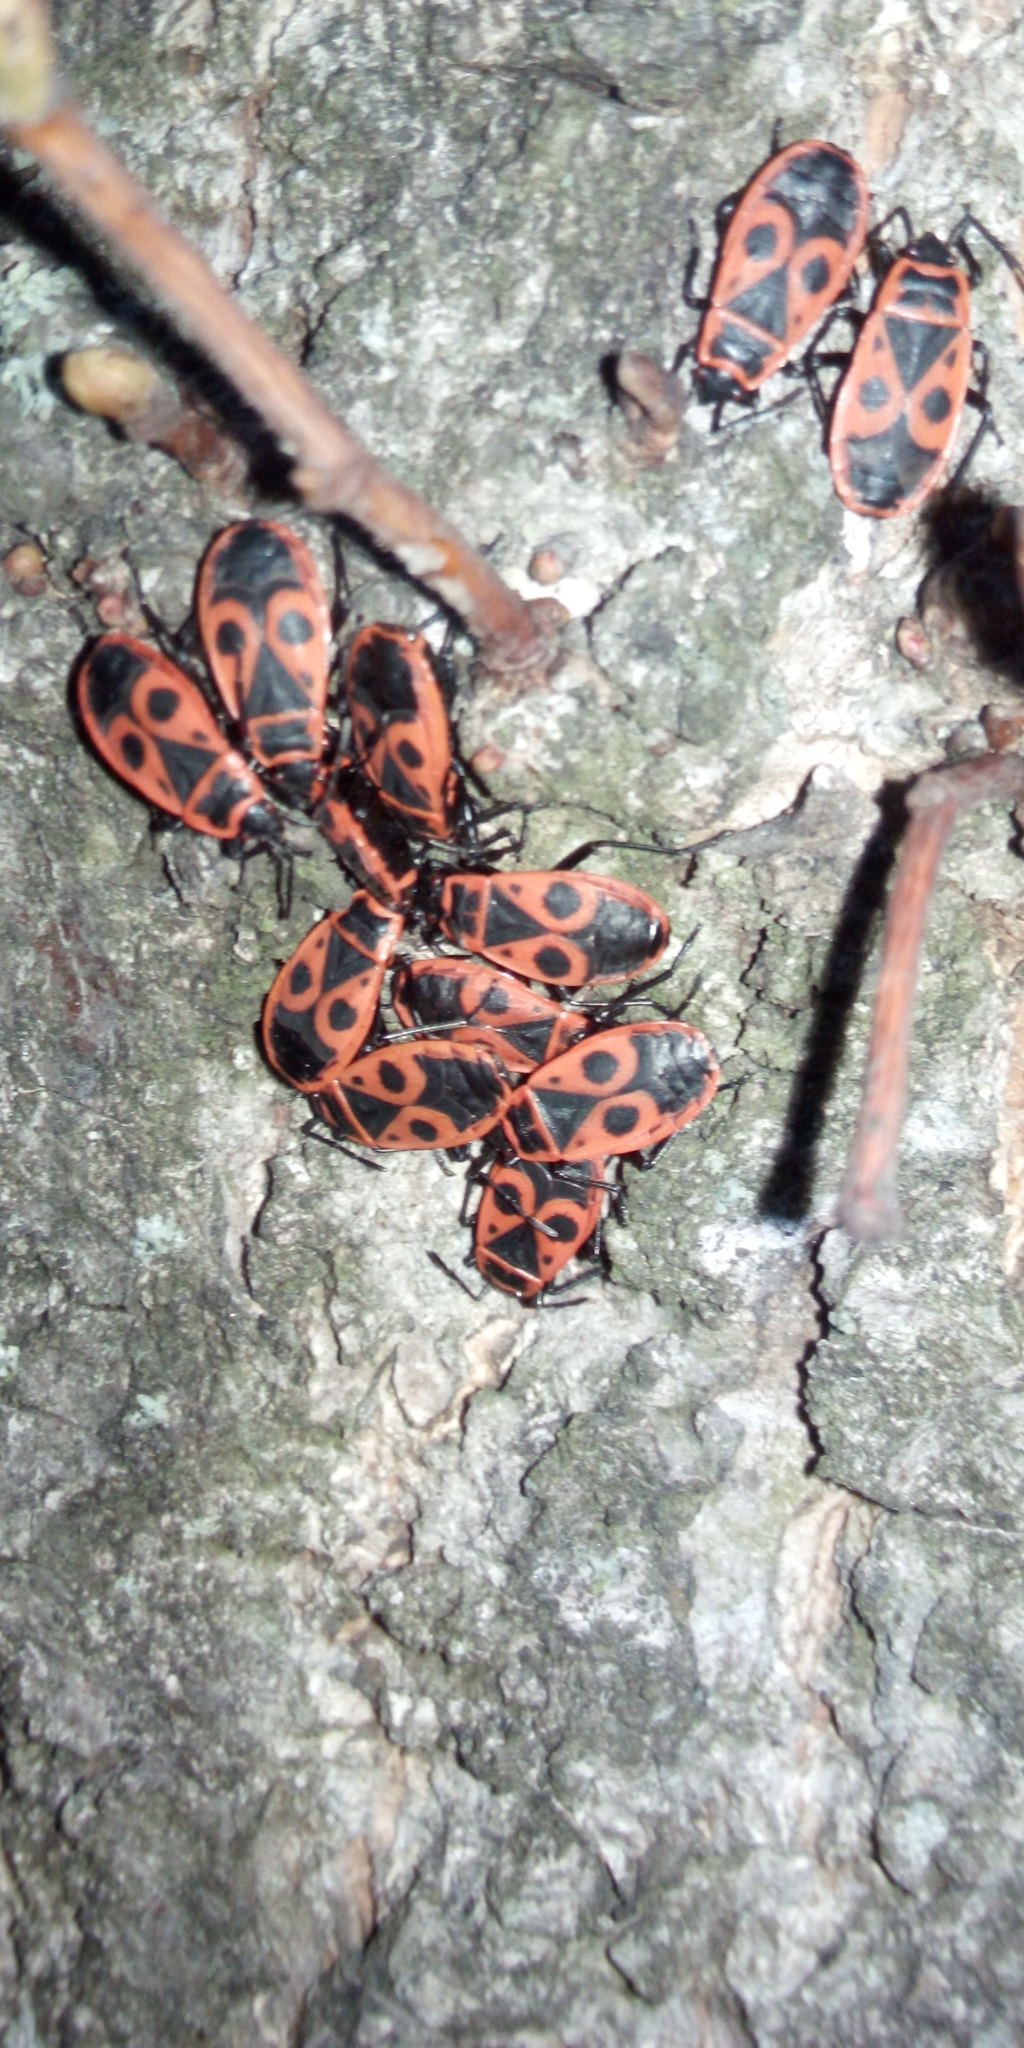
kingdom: Animalia
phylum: Arthropoda
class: Insecta
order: Hemiptera
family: Pyrrhocoridae
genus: Pyrrhocoris
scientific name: Pyrrhocoris apterus
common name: Firebug
